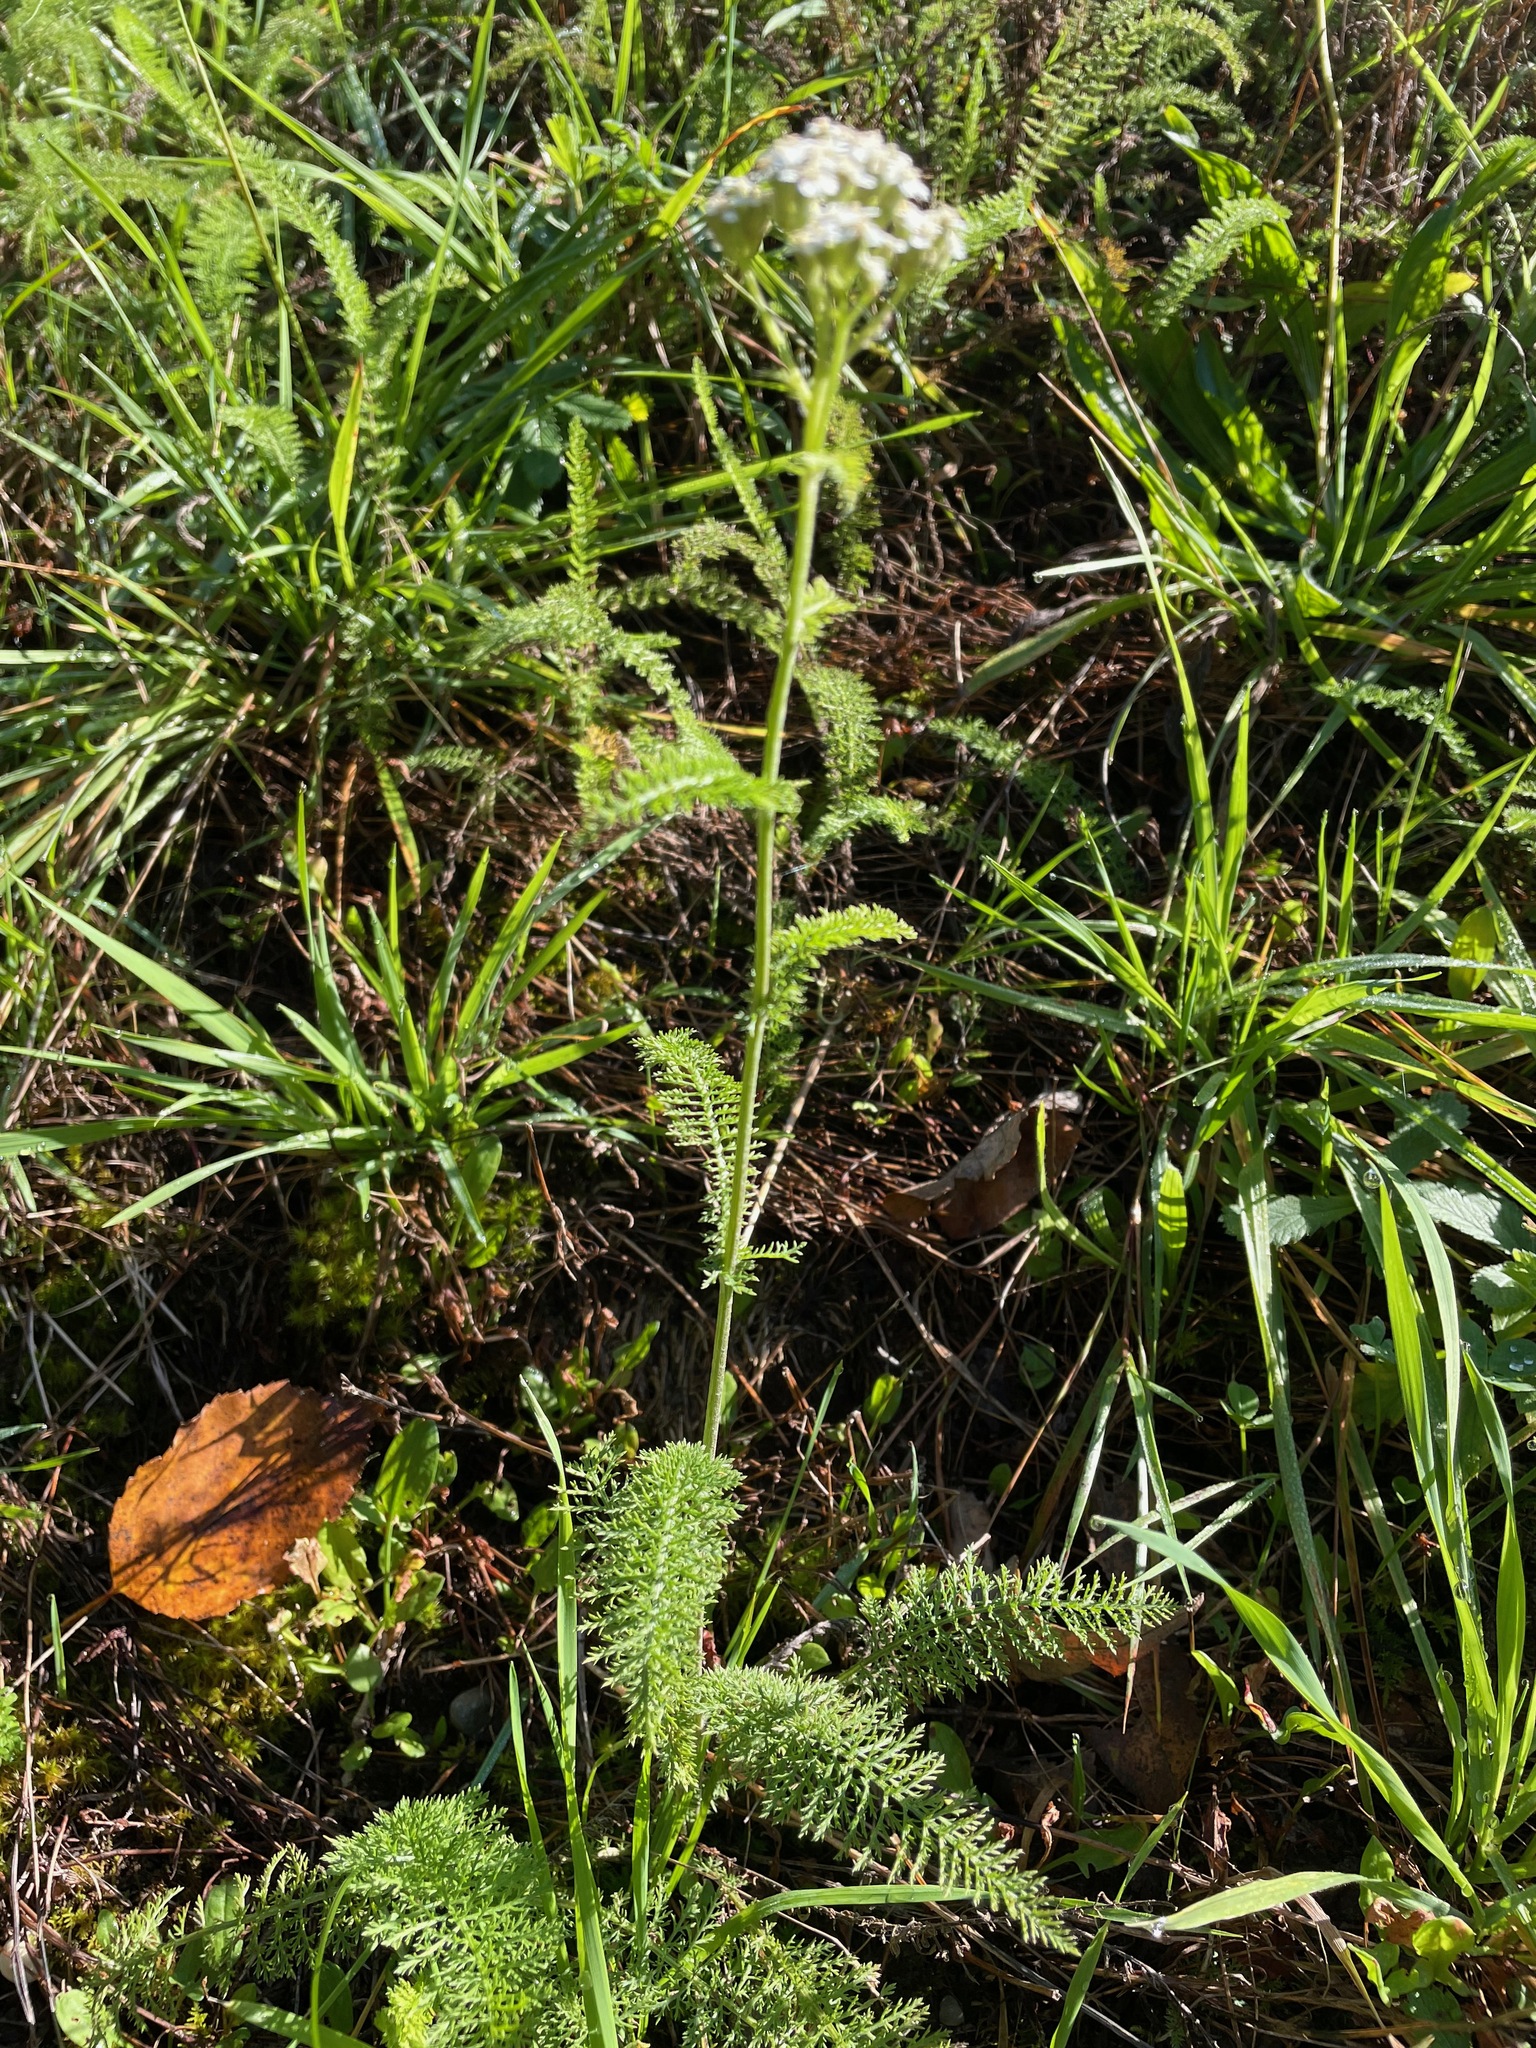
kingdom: Plantae
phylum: Tracheophyta
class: Magnoliopsida
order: Asterales
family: Asteraceae
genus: Achillea
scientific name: Achillea millefolium
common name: Yarrow
